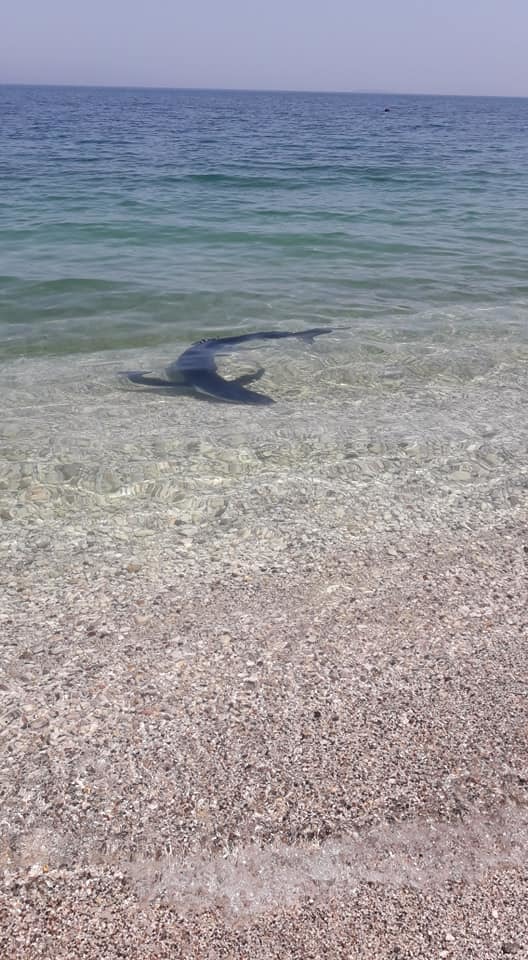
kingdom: Animalia
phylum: Chordata
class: Elasmobranchii
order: Carcharhiniformes
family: Carcharhinidae
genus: Prionace
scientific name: Prionace glauca
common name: Blue shark
